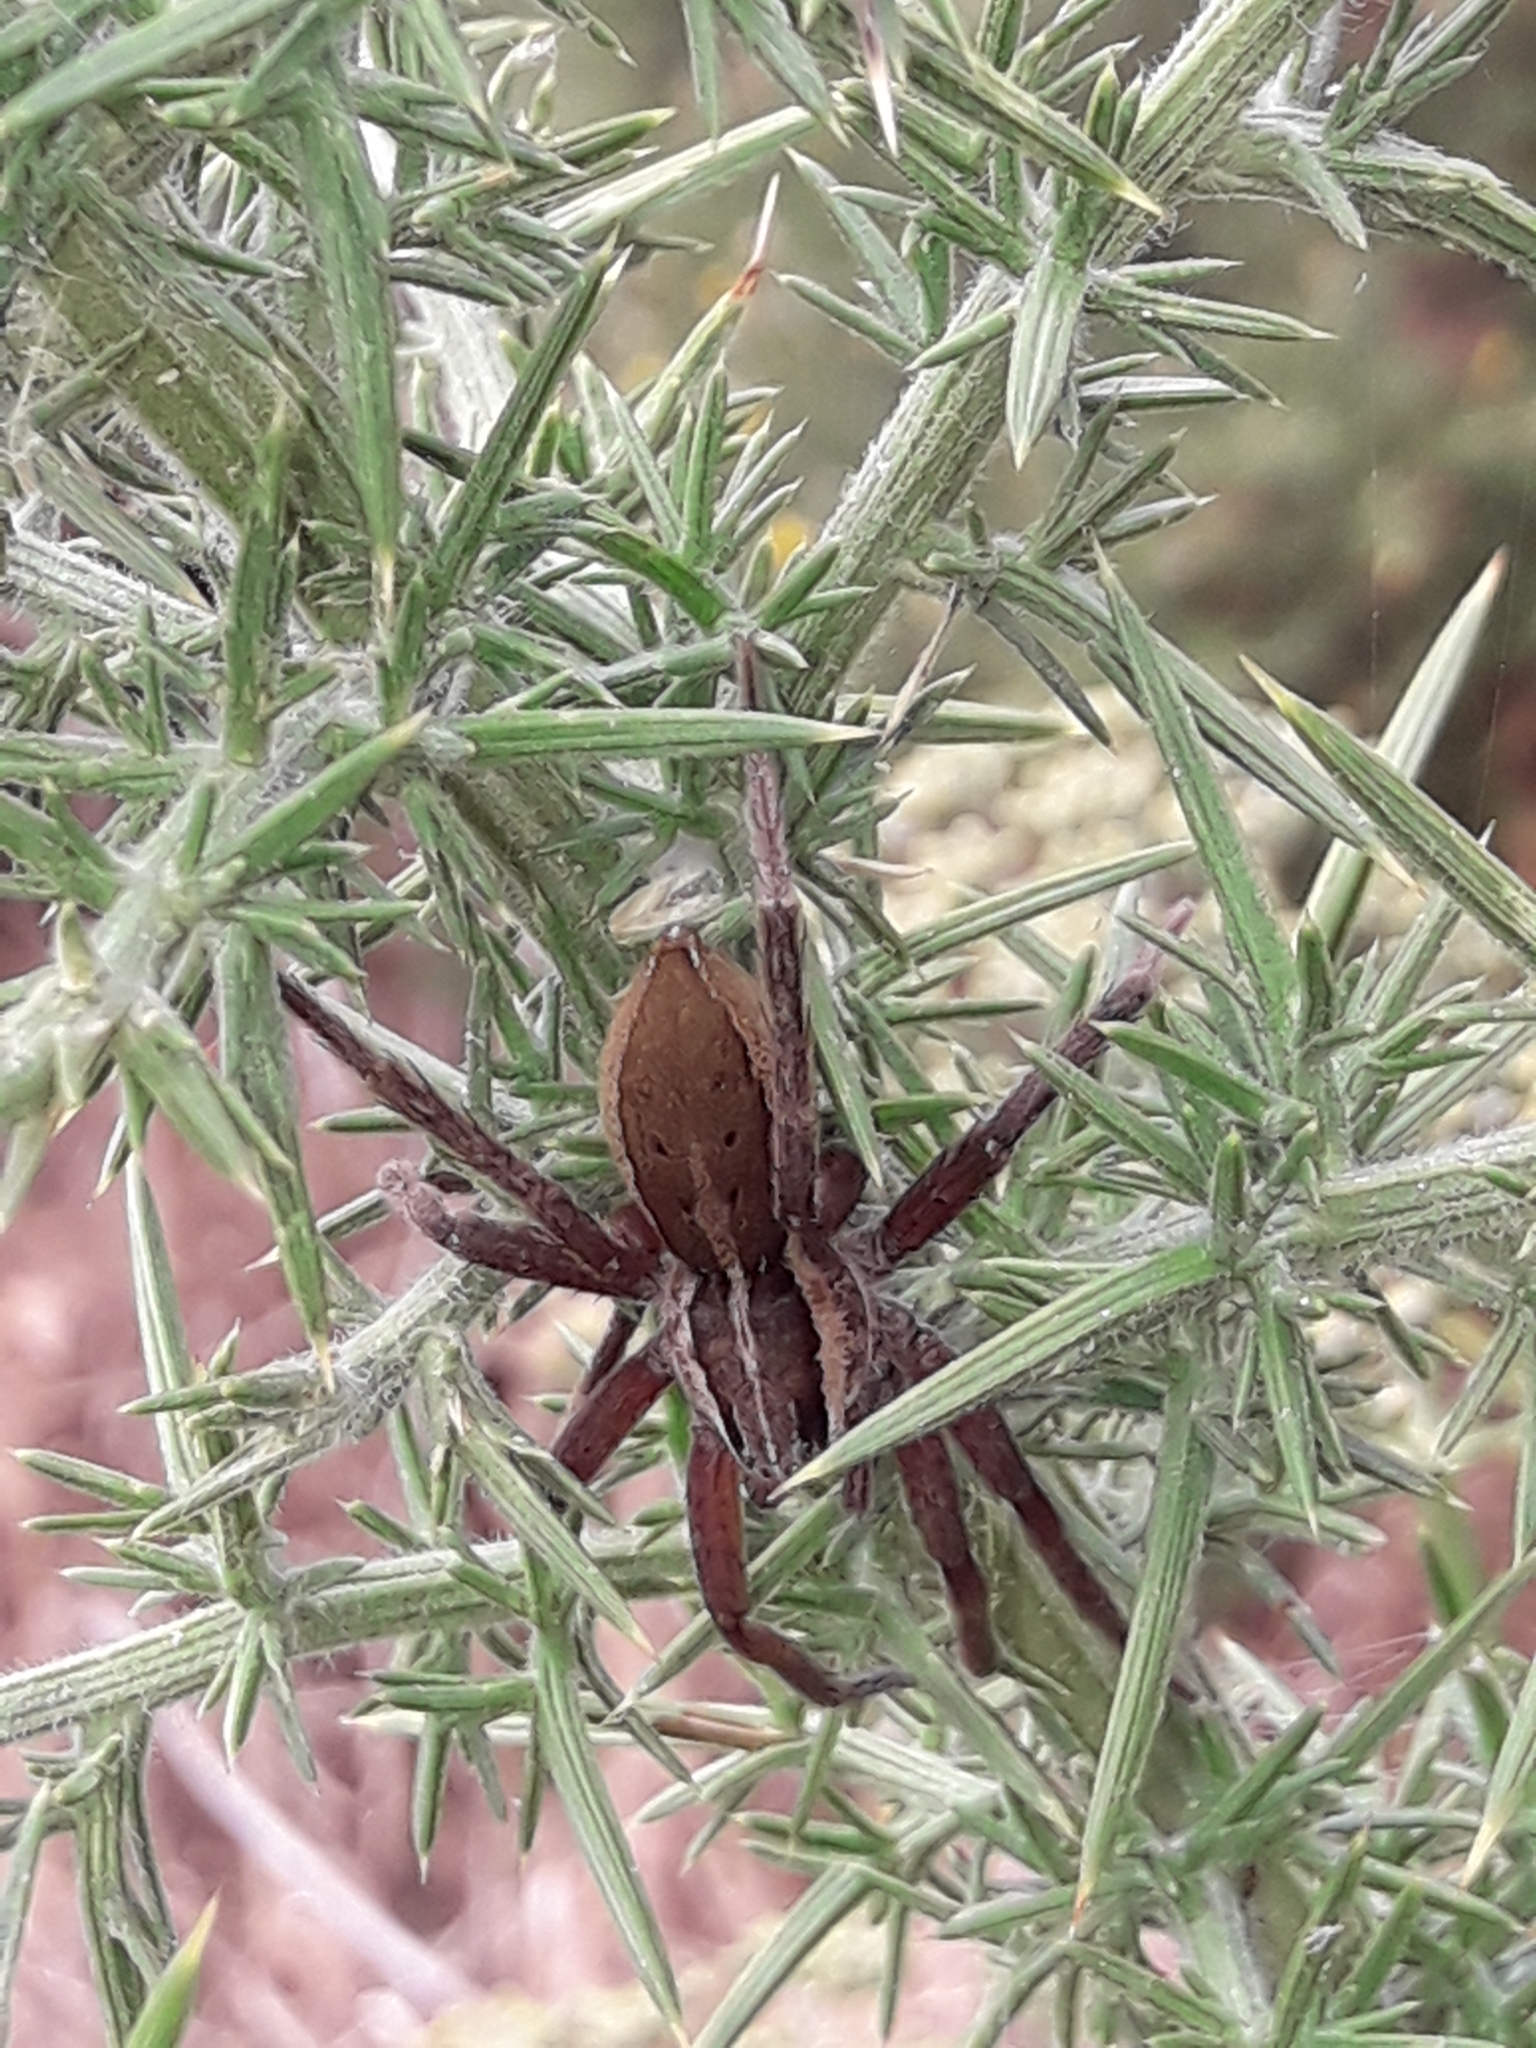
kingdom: Animalia
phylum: Arthropoda
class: Arachnida
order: Araneae
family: Pisauridae
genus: Dolomedes
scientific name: Dolomedes minor
